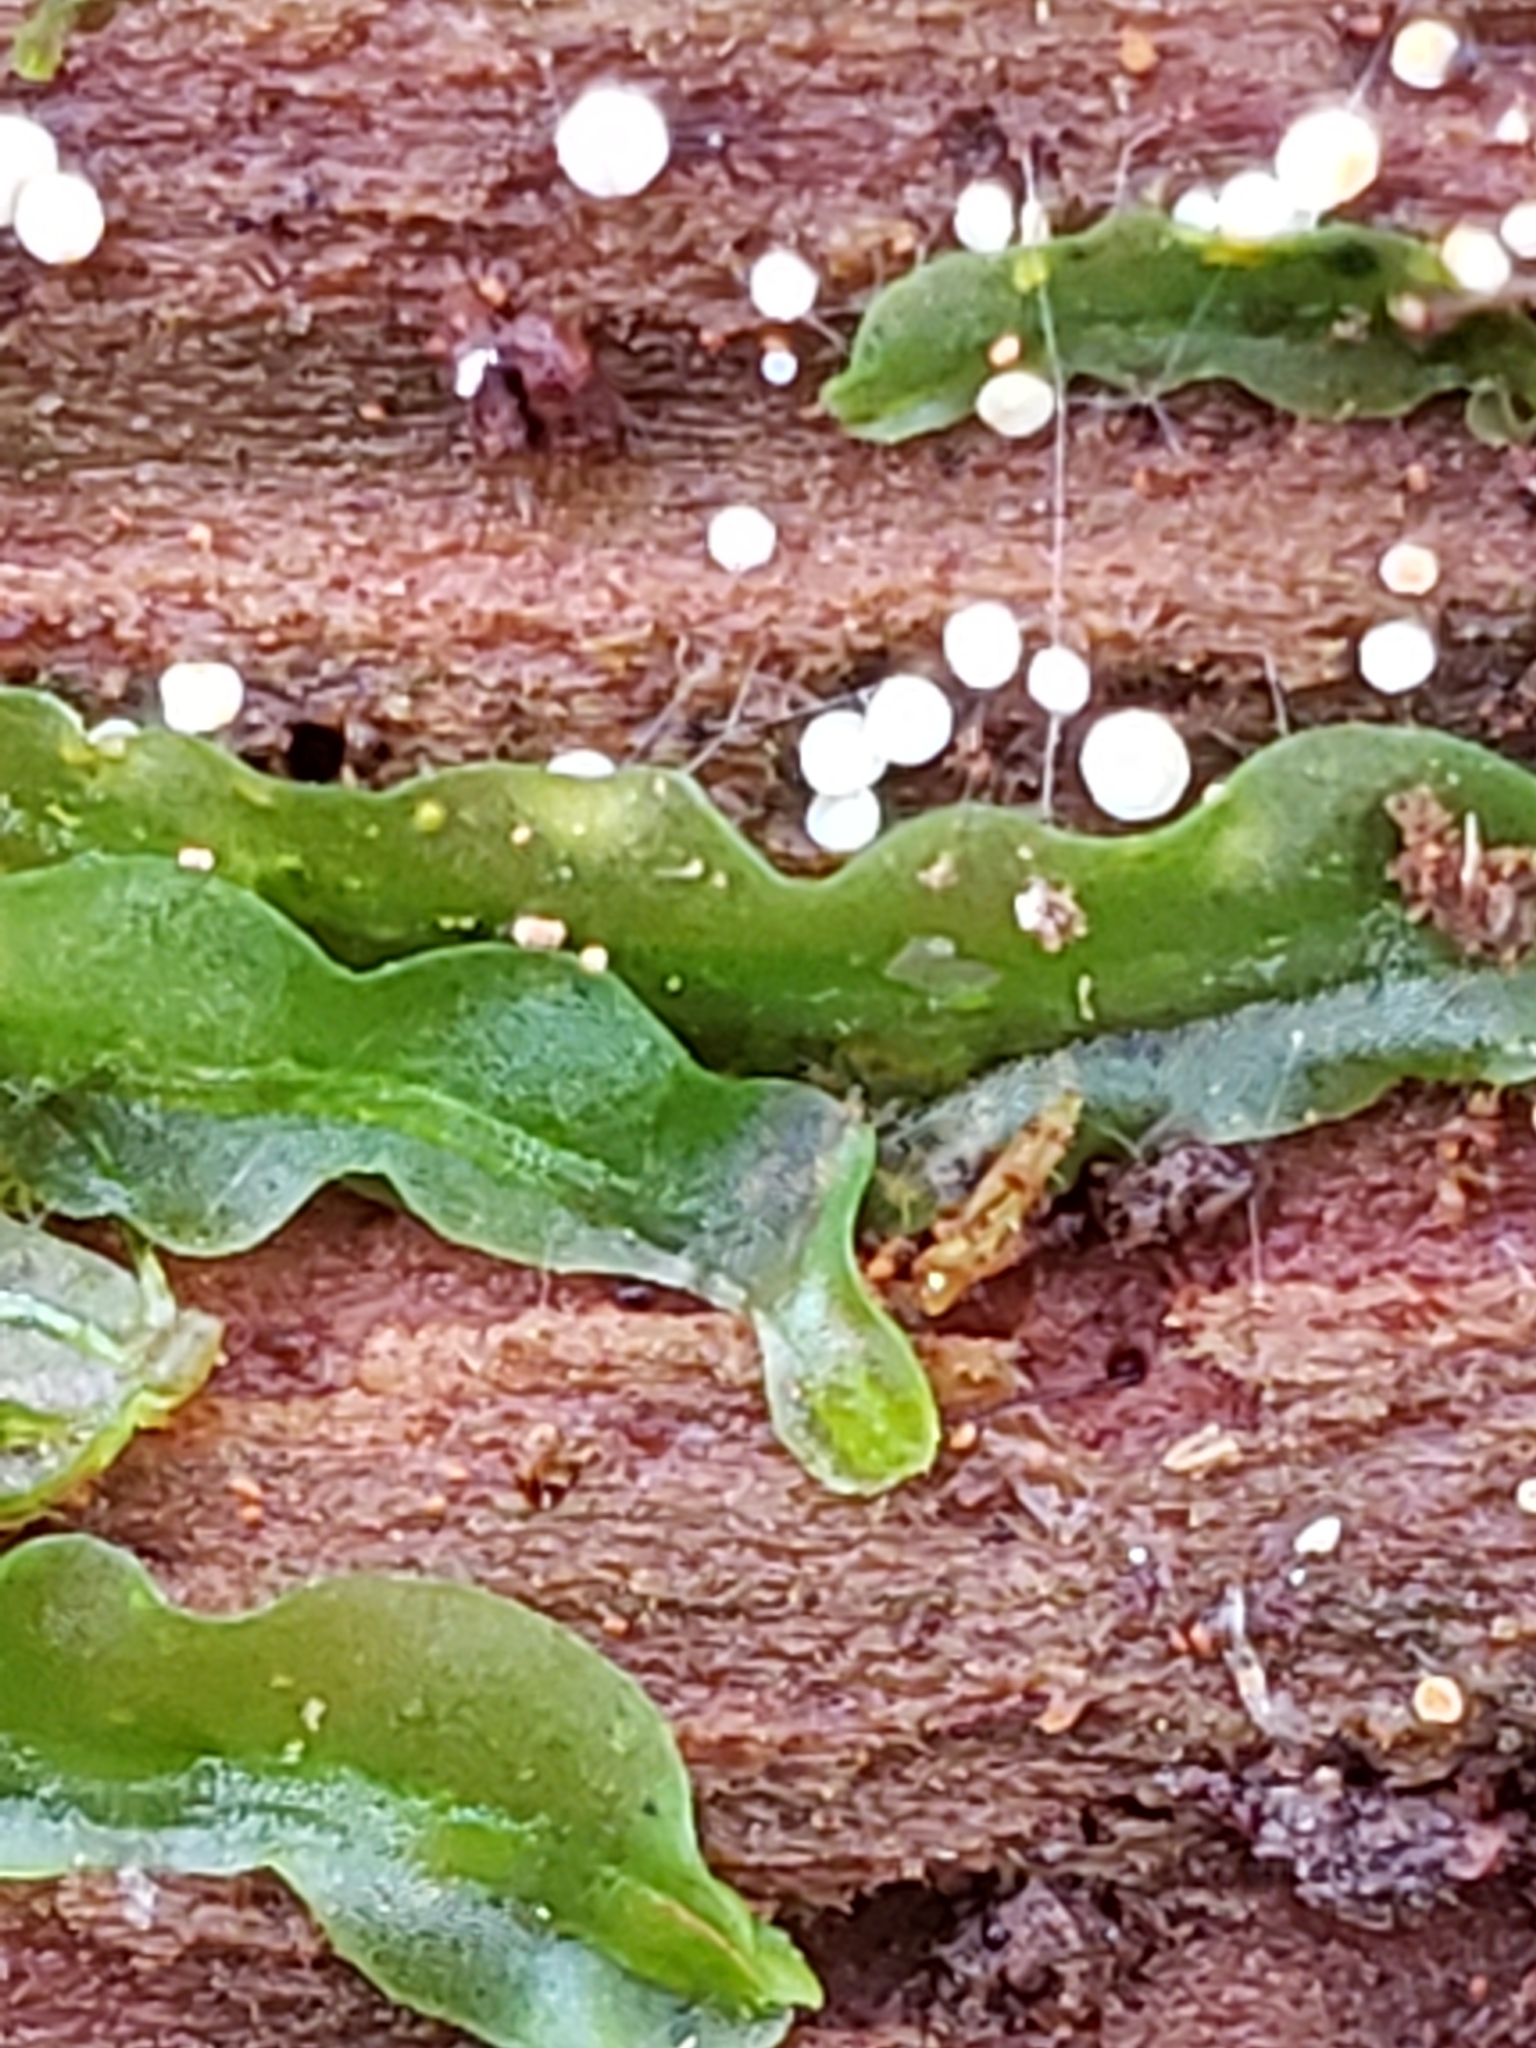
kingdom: Plantae
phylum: Marchantiophyta
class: Jungermanniopsida
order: Pallaviciniales
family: Pallaviciniaceae
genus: Pallavicinia
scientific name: Pallavicinia lyellii
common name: Veilwort
